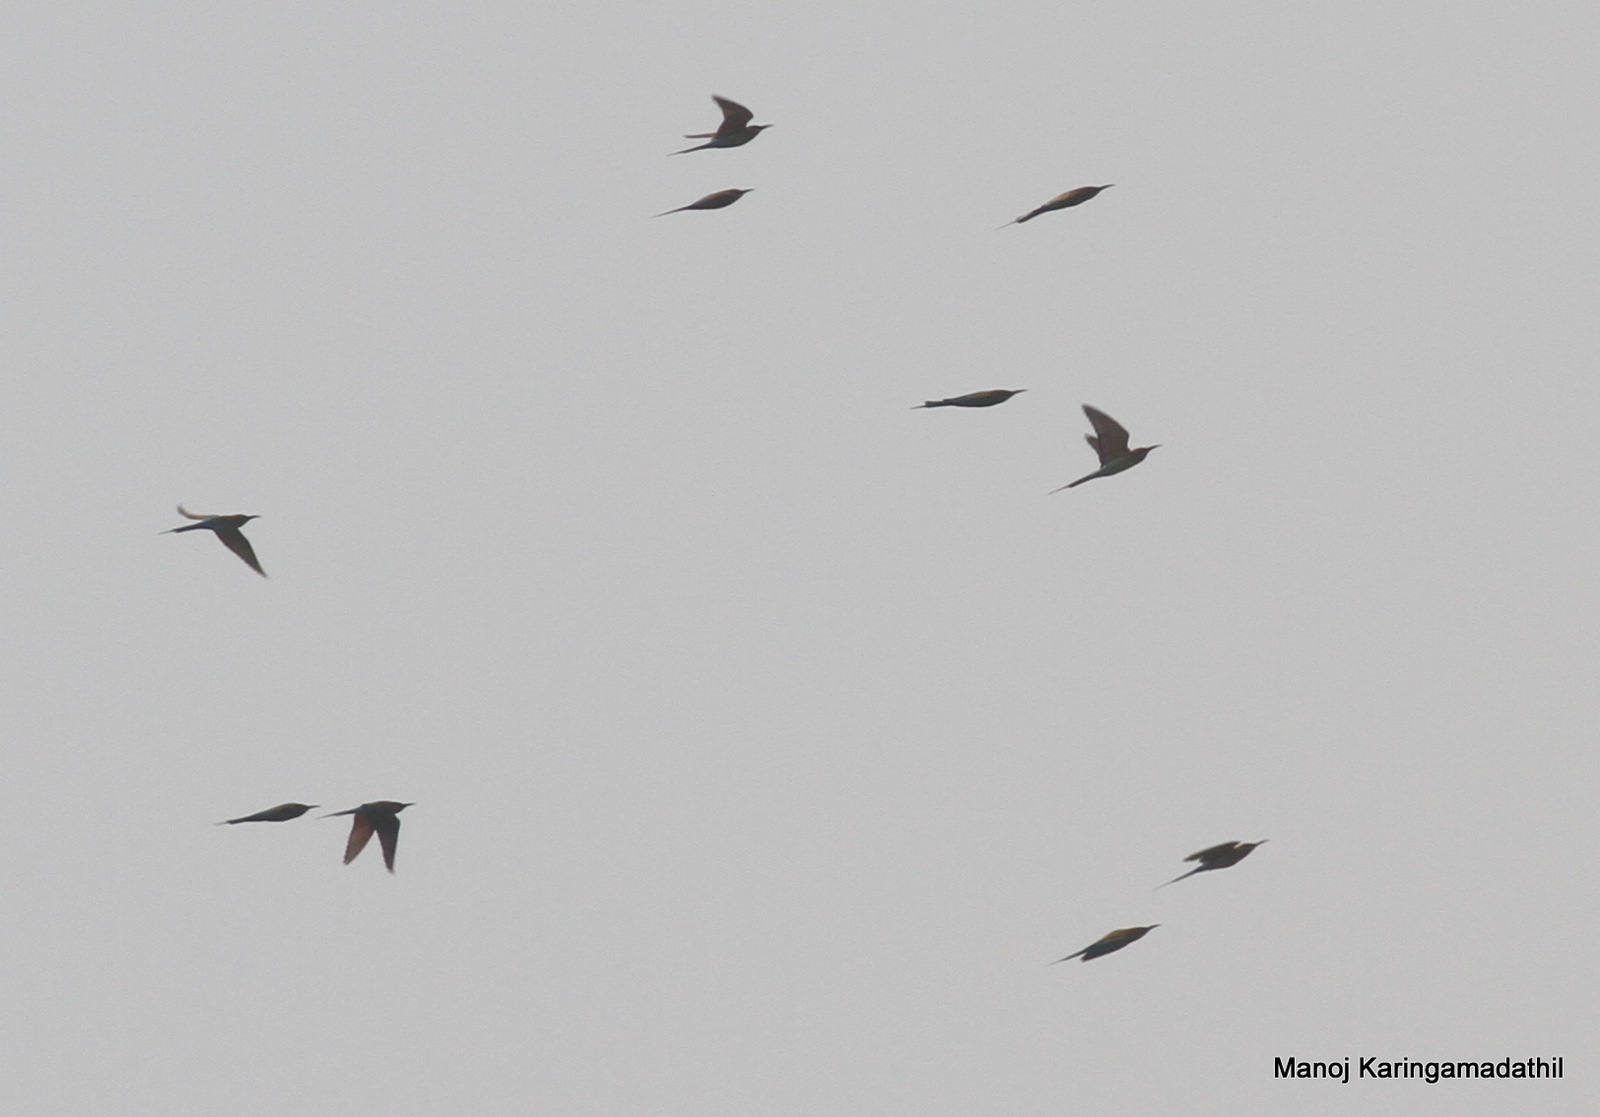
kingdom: Animalia
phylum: Chordata
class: Aves
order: Coraciiformes
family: Meropidae
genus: Merops
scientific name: Merops philippinus
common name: Blue-tailed bee-eater
